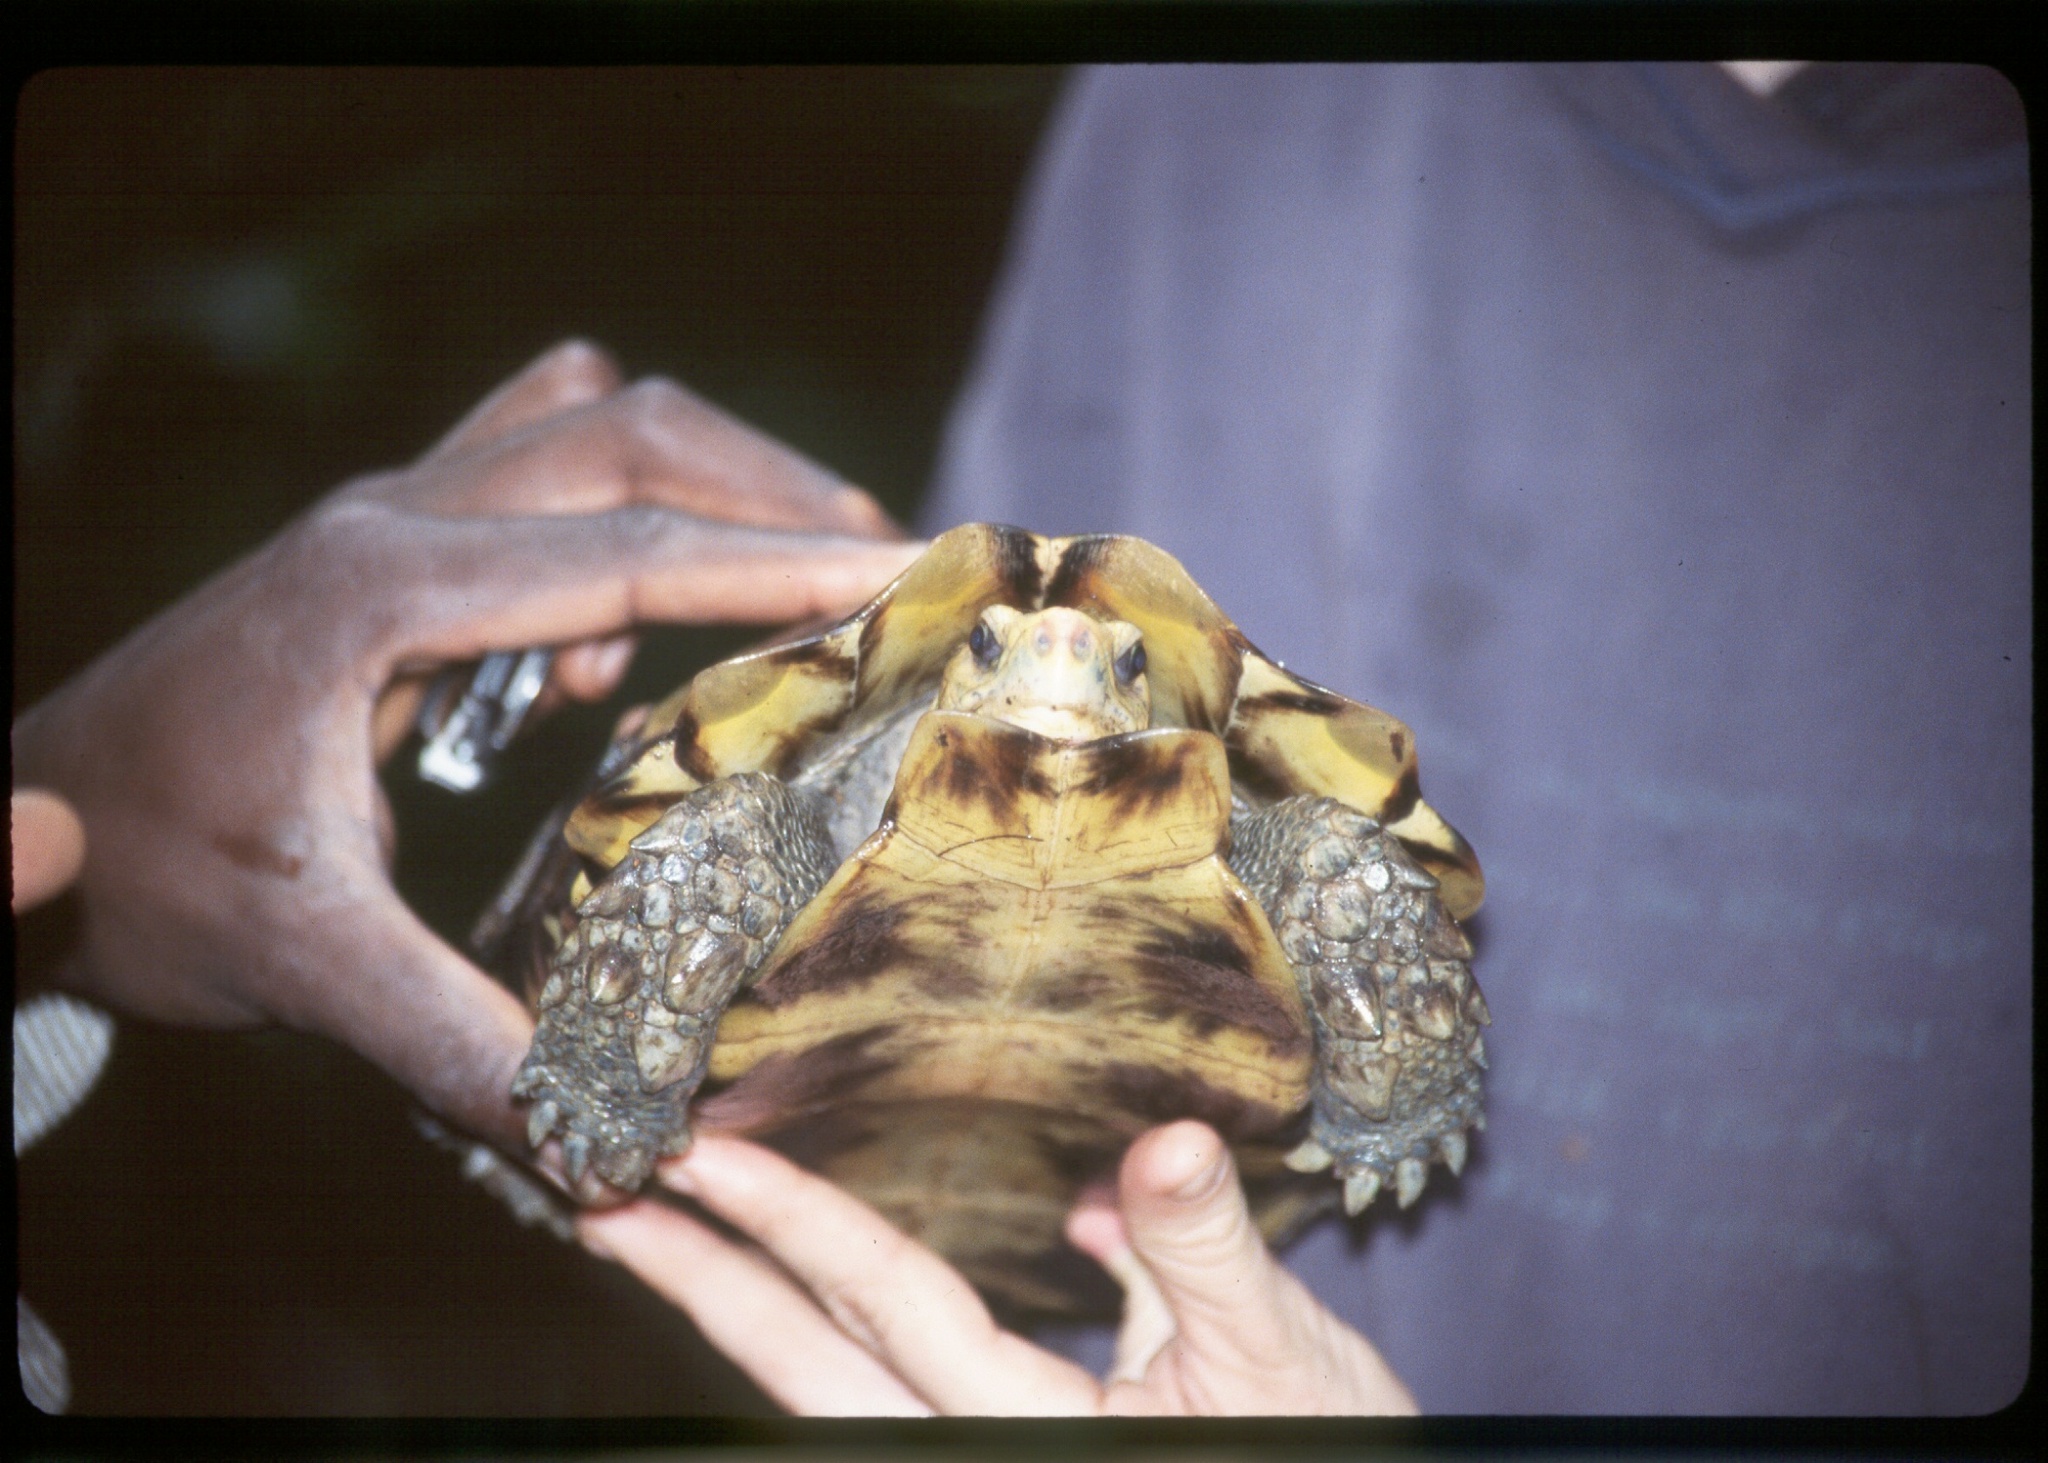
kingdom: Animalia
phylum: Chordata
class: Testudines
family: Testudinidae
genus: Kinixys
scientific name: Kinixys erosa
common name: Serrated hinge-back tortoise
